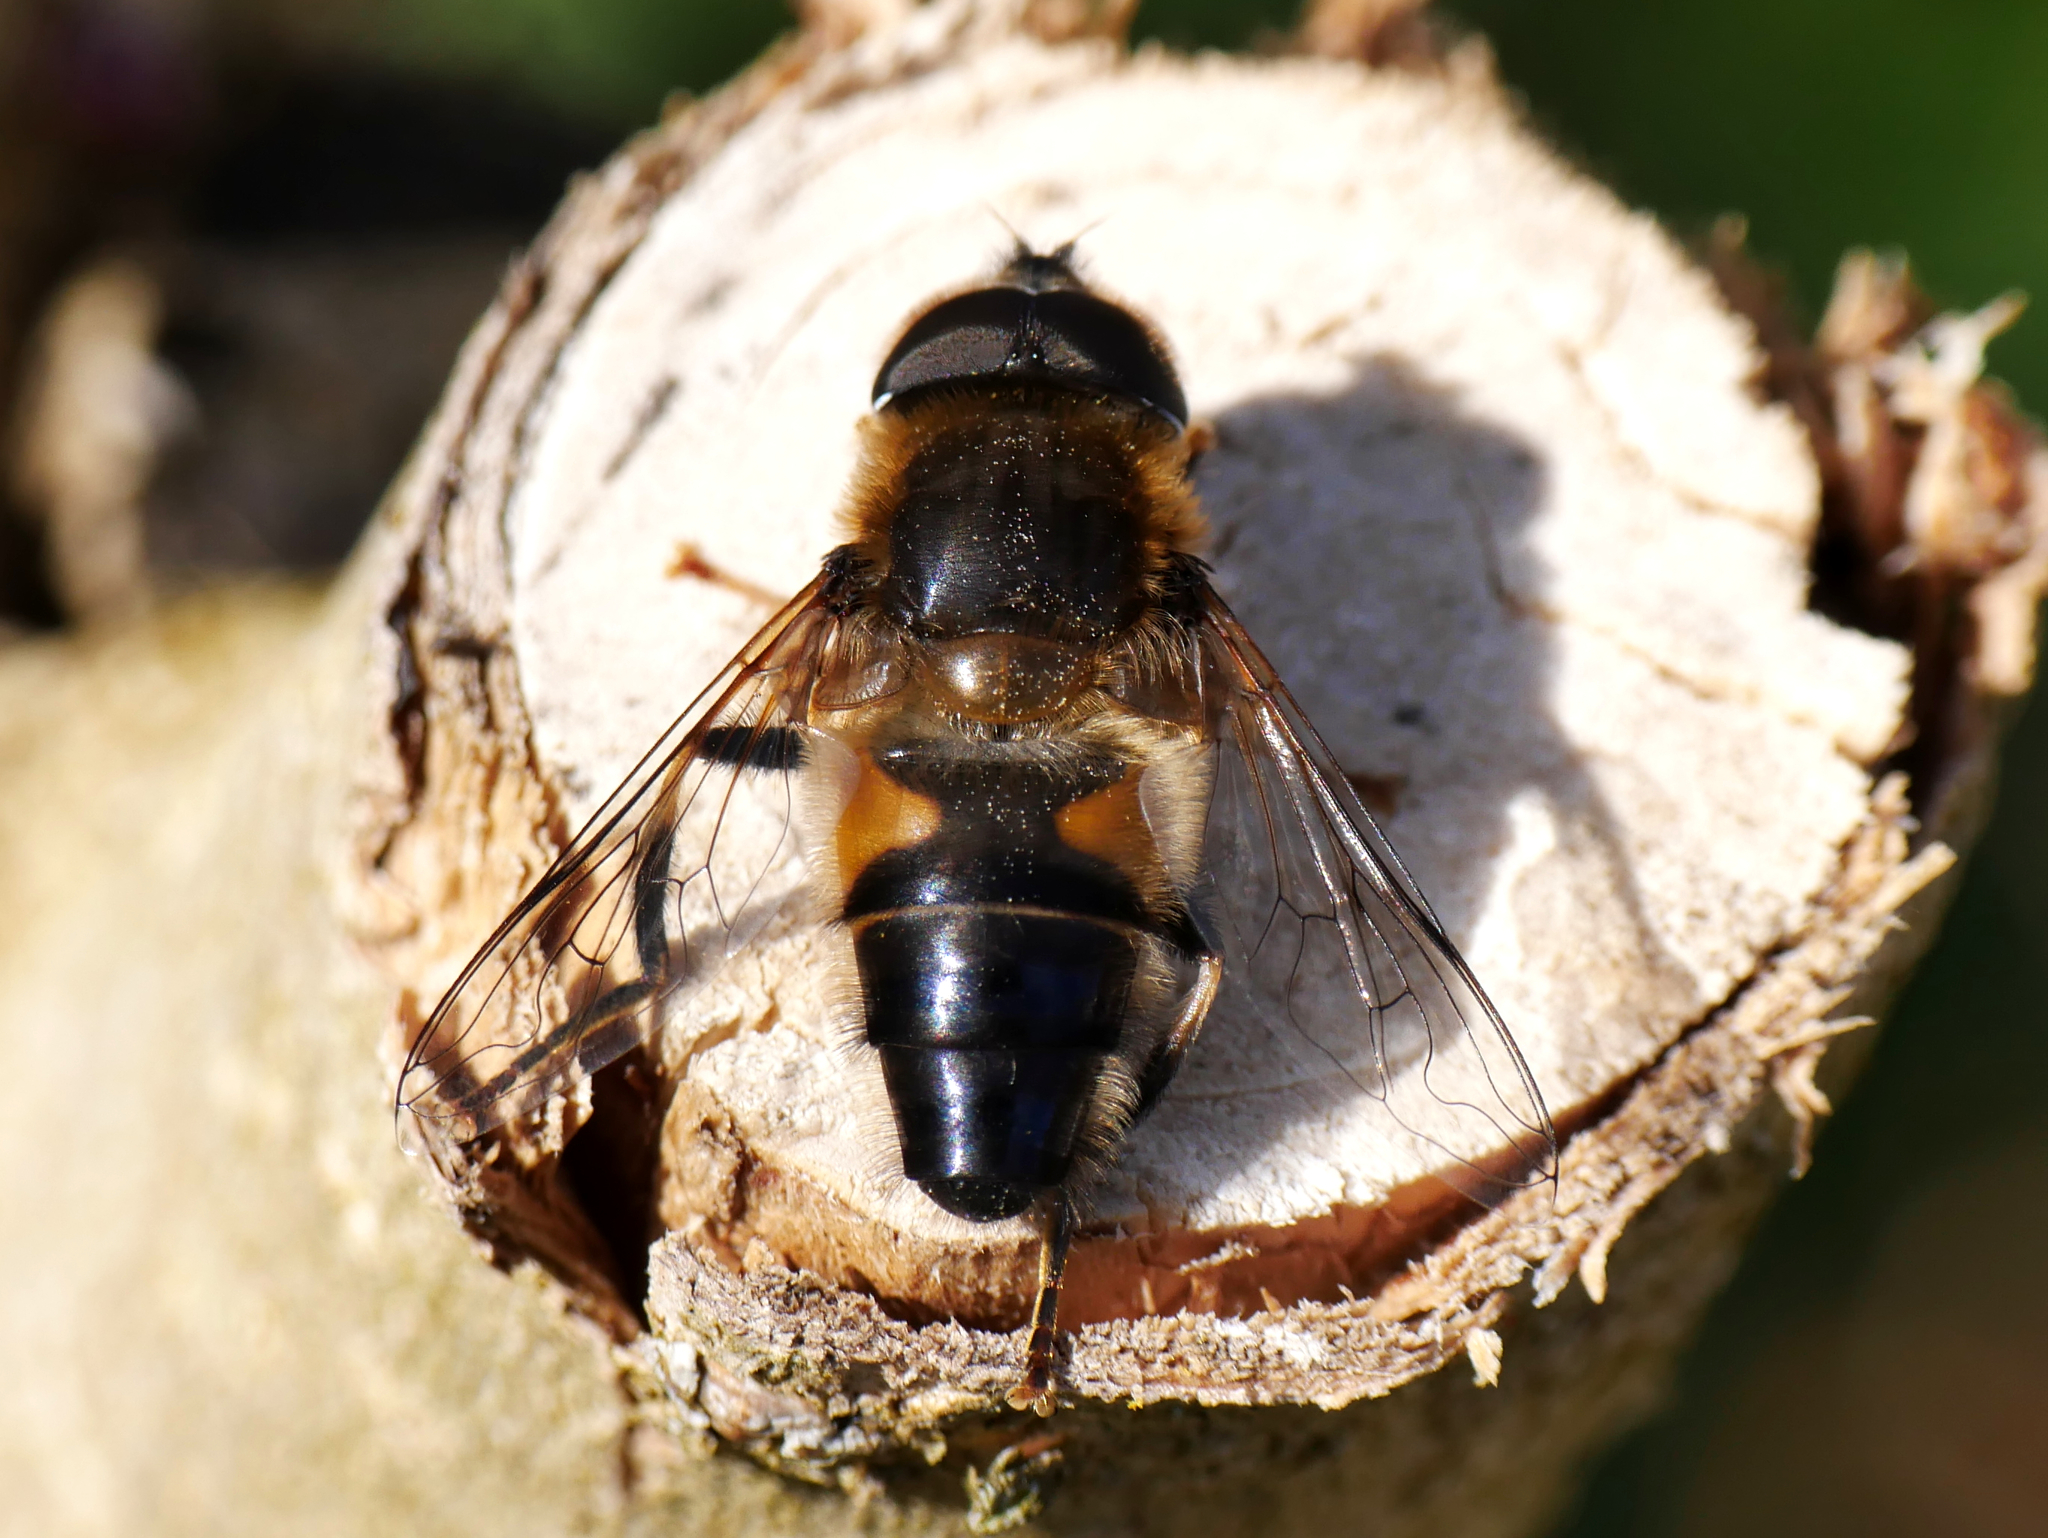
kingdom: Animalia
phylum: Arthropoda
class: Insecta
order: Diptera
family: Syrphidae
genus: Eristalis
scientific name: Eristalis pertinax
